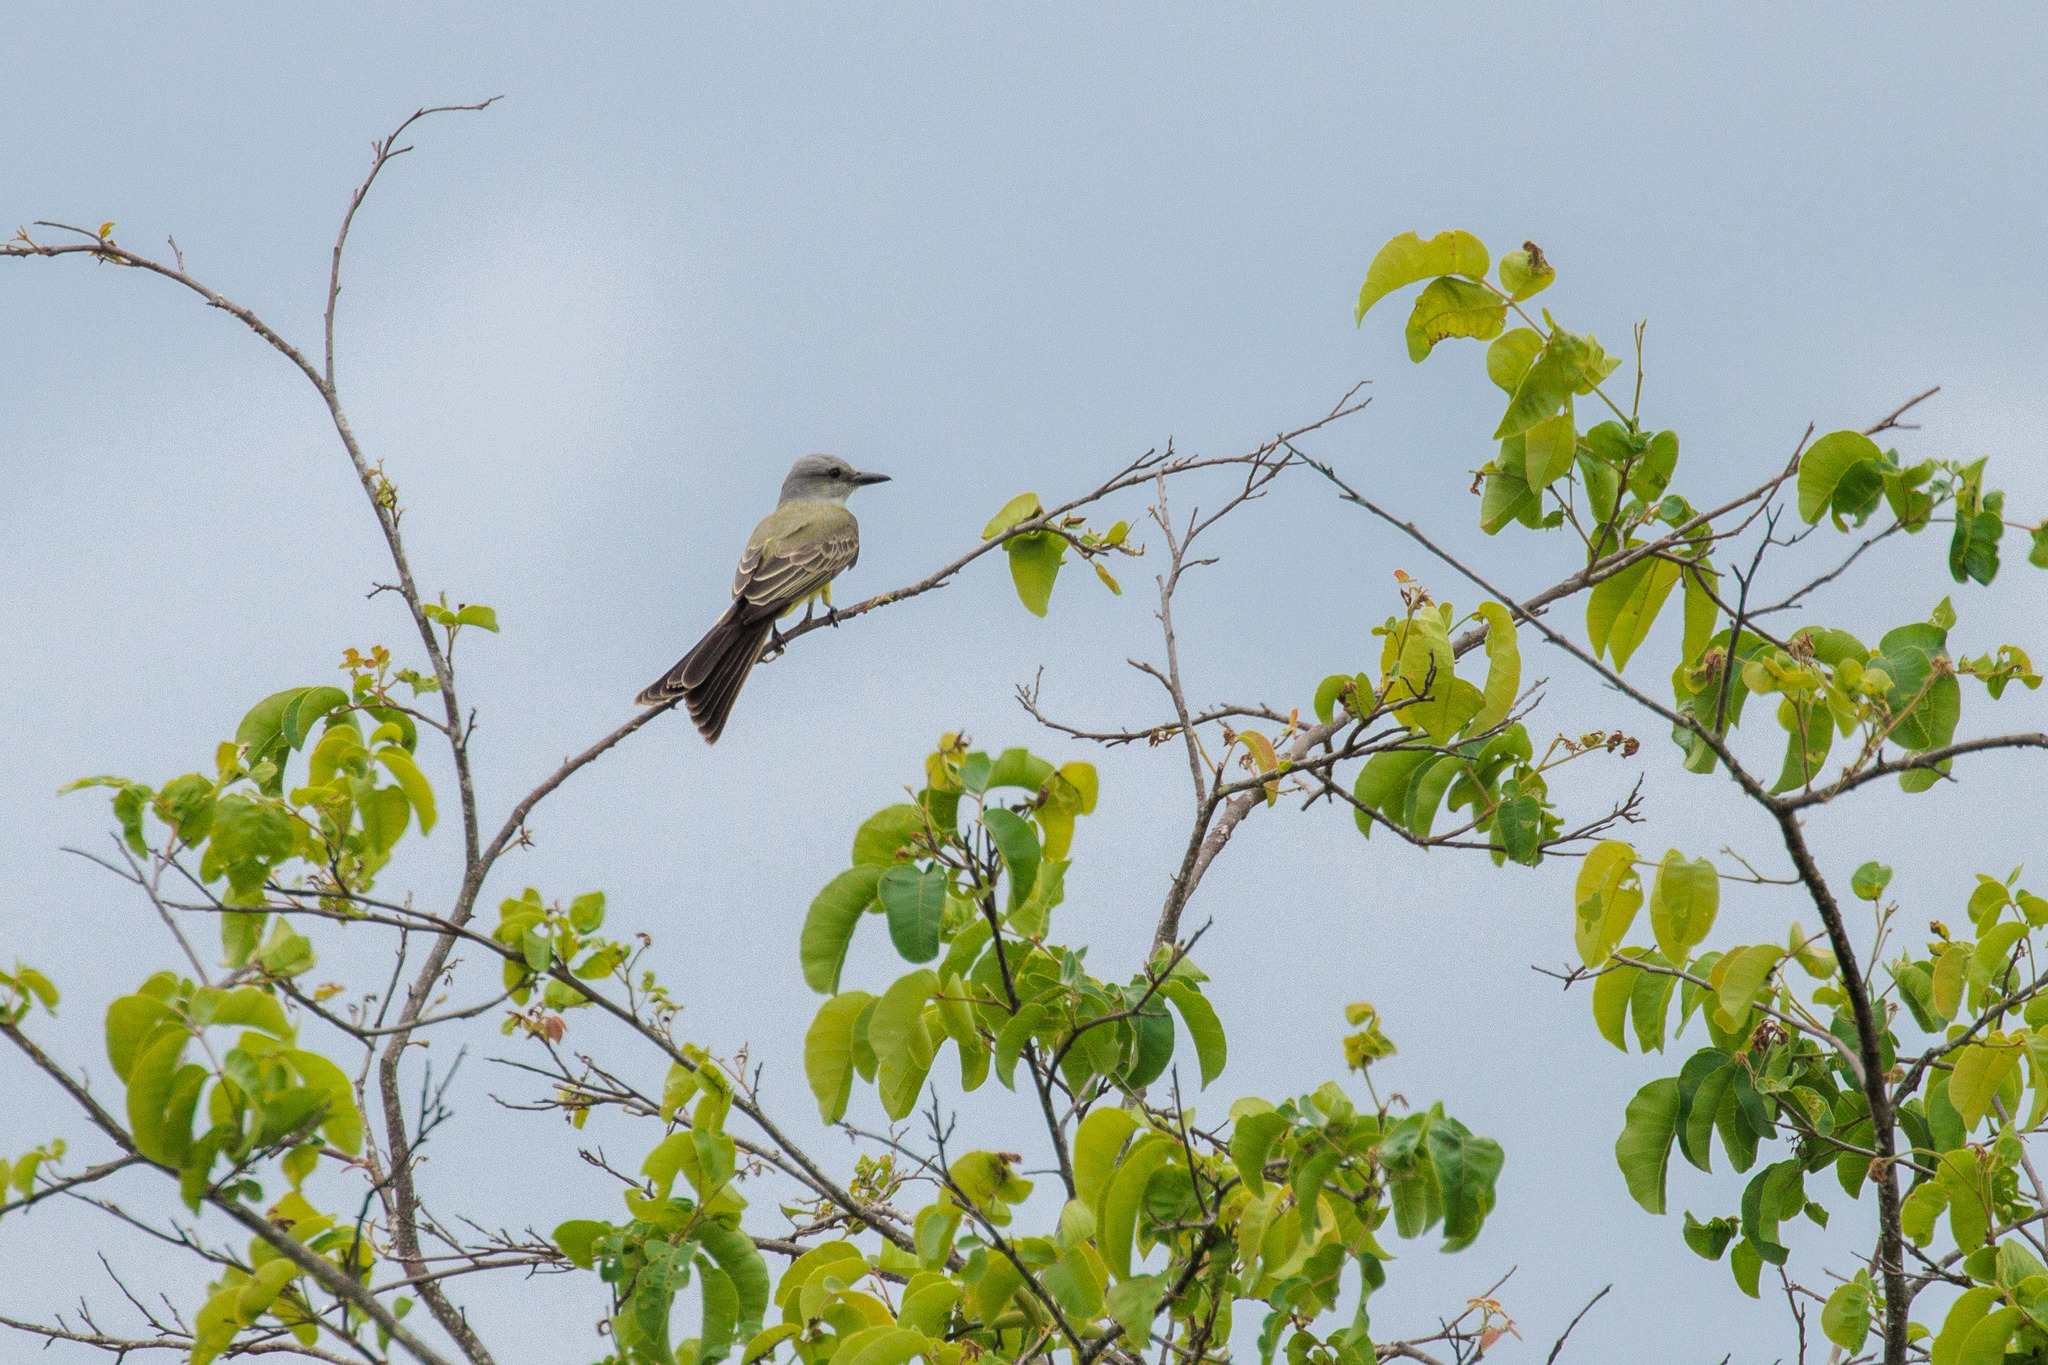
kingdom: Animalia
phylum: Chordata
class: Aves
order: Passeriformes
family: Tyrannidae
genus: Tyrannus
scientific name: Tyrannus melancholicus
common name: Tropical kingbird
